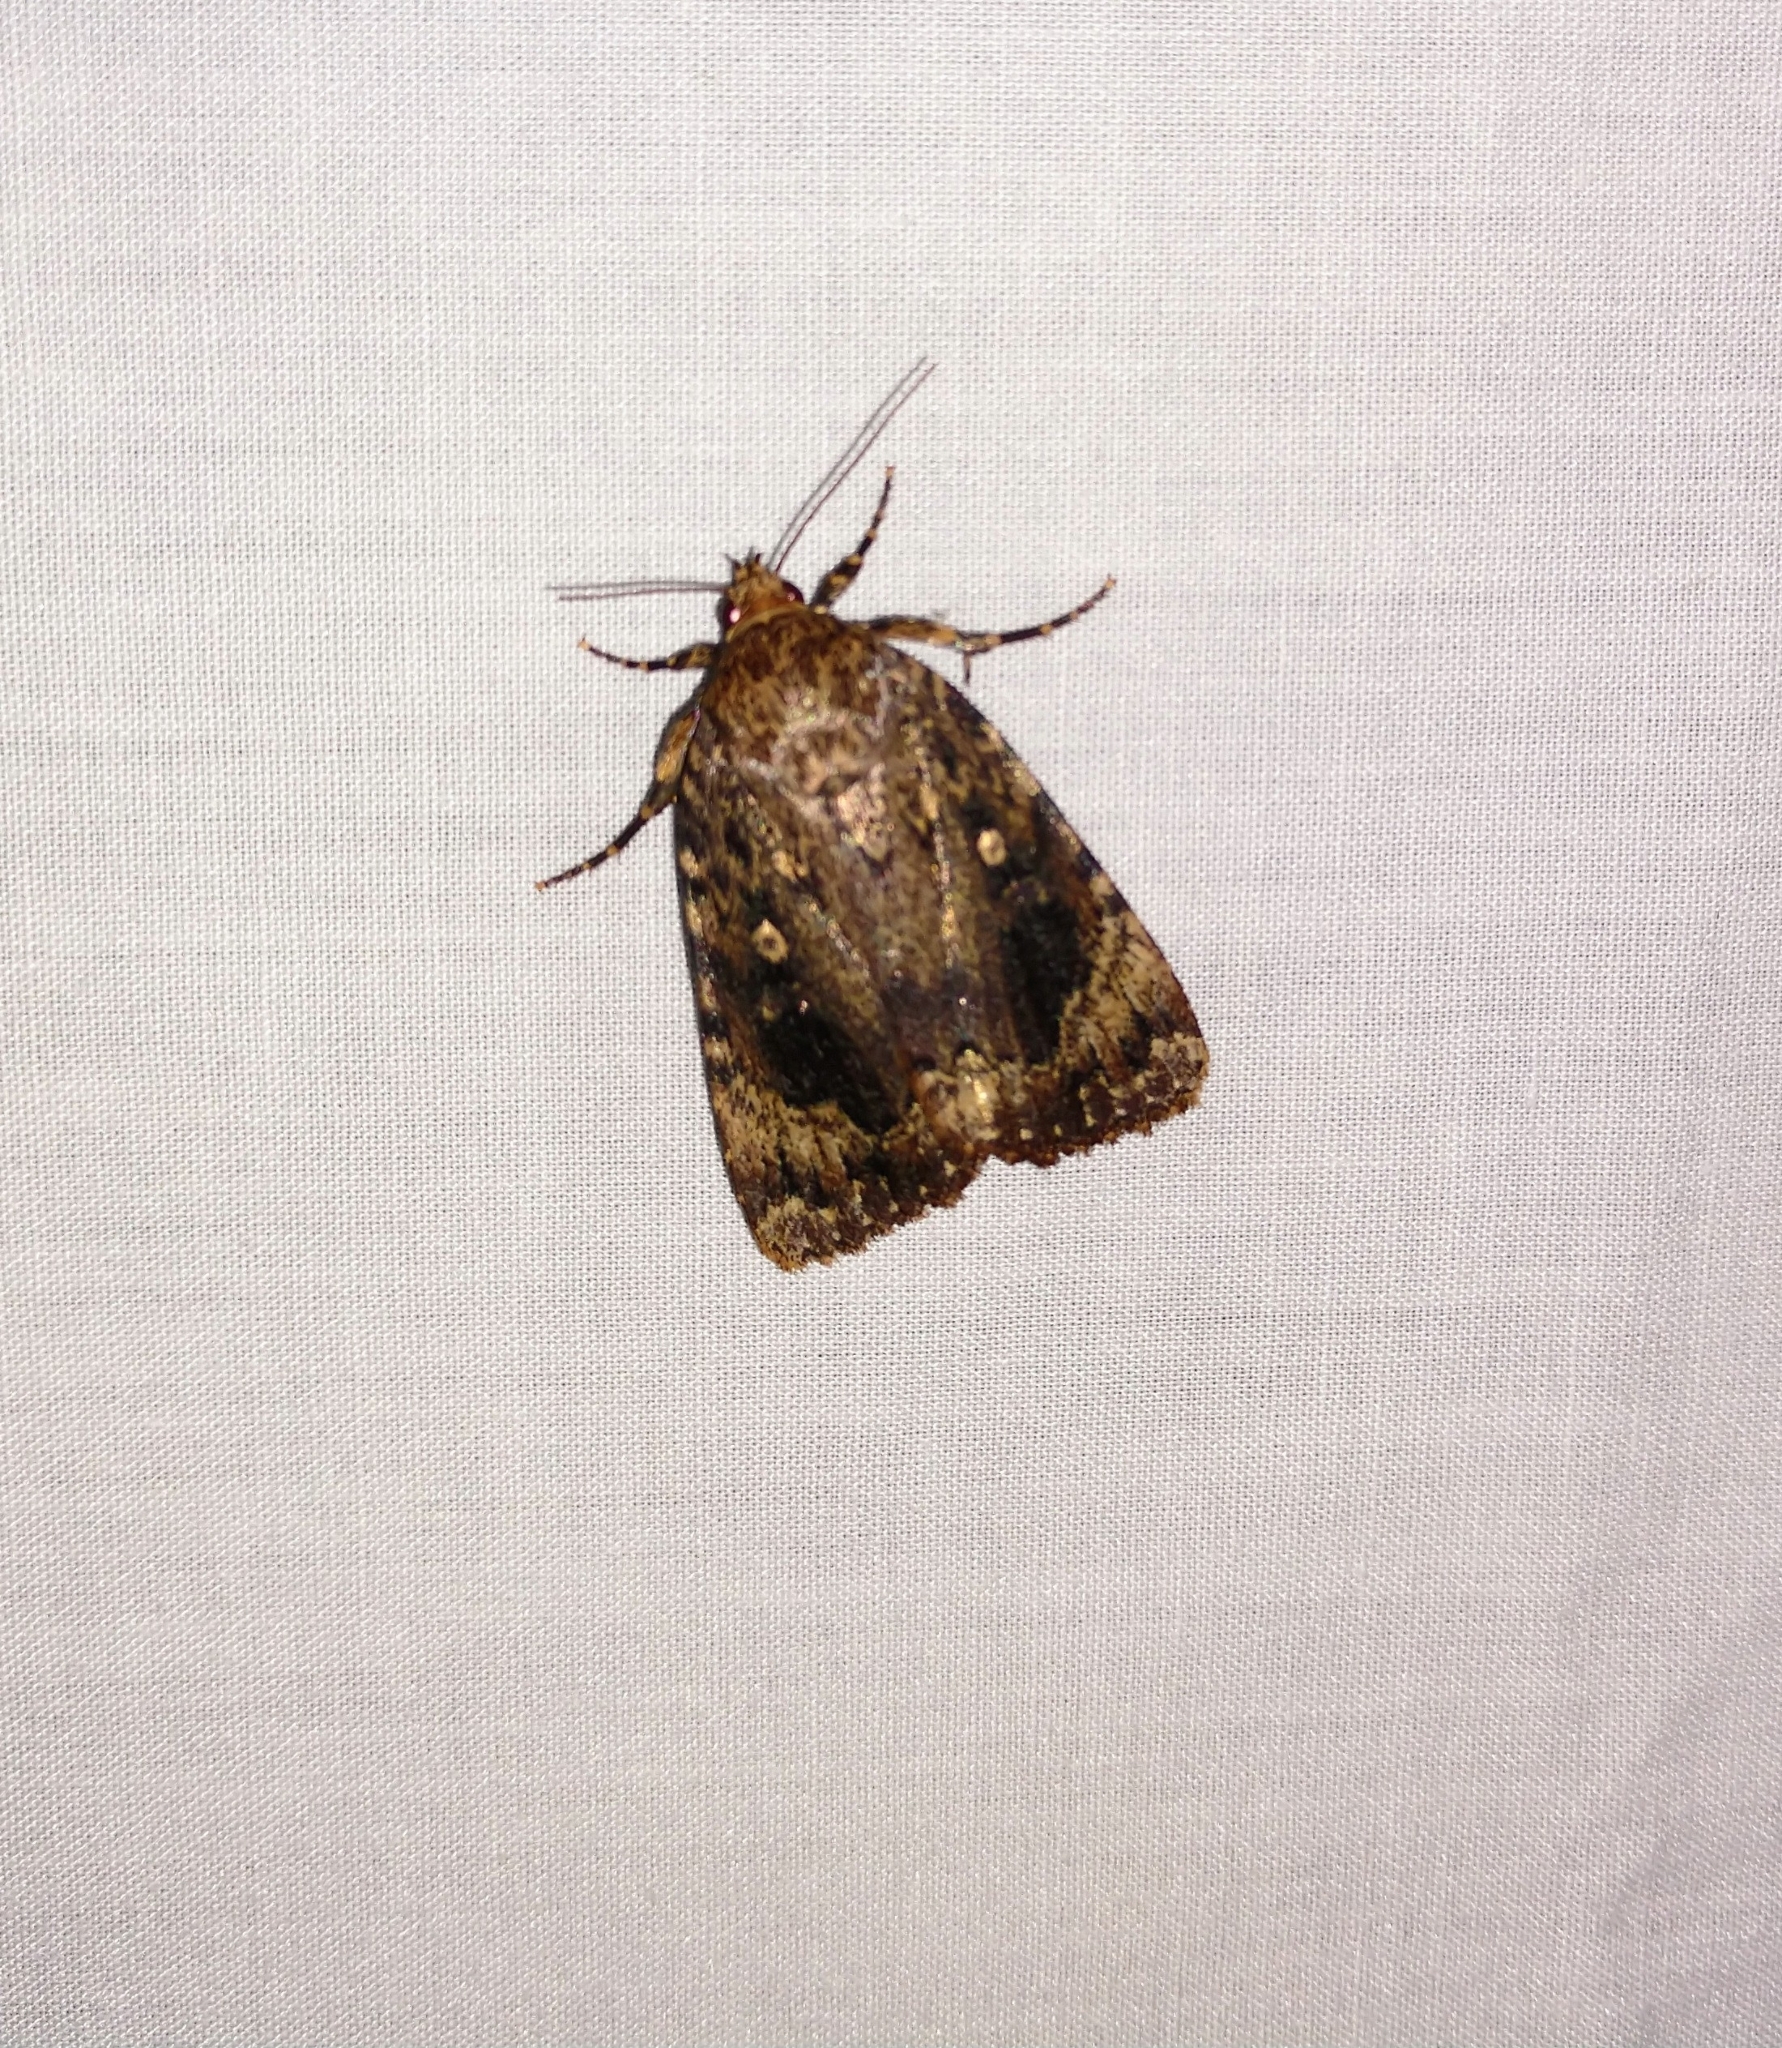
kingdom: Animalia
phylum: Arthropoda
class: Insecta
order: Lepidoptera
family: Noctuidae
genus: Amphipyra
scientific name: Amphipyra pyramidoides
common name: American copper underwing
